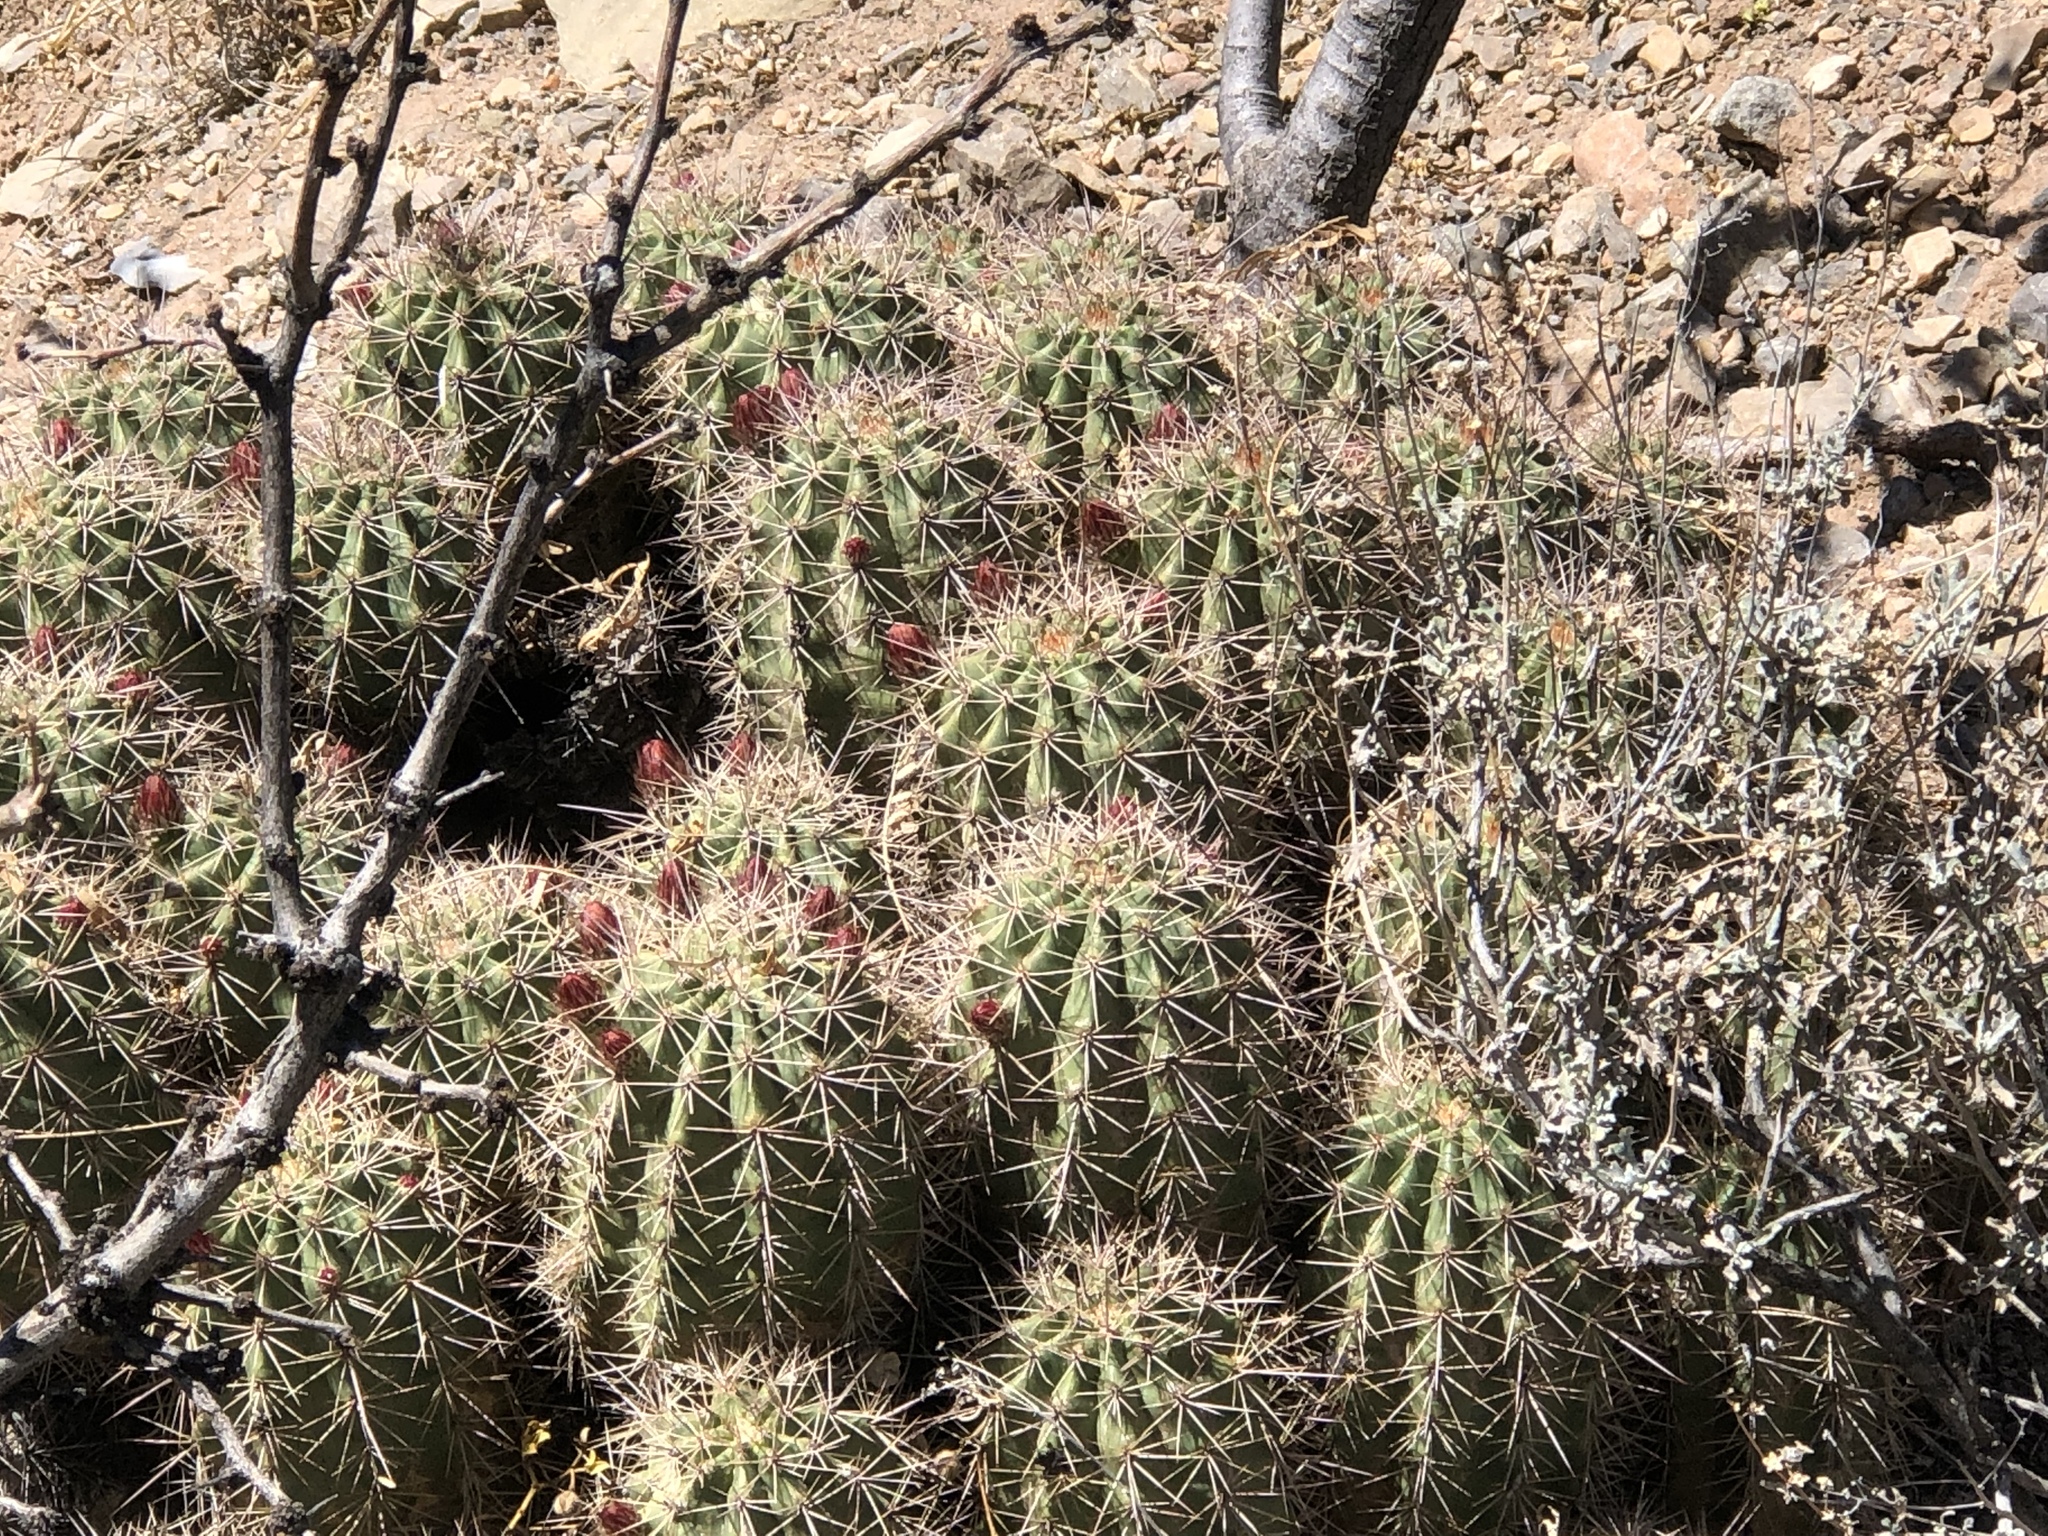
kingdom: Plantae
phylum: Tracheophyta
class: Magnoliopsida
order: Caryophyllales
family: Cactaceae
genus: Echinocereus
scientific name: Echinocereus coccineus
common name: Scarlet hedgehog cactus
